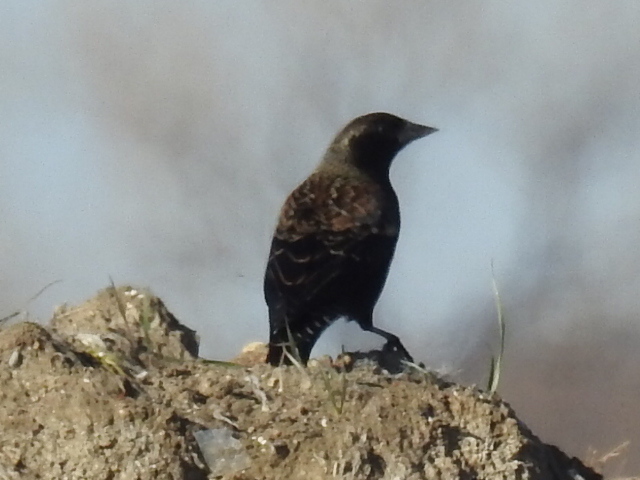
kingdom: Animalia
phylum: Chordata
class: Aves
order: Passeriformes
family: Icteridae
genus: Agelaius
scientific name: Agelaius phoeniceus
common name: Red-winged blackbird
